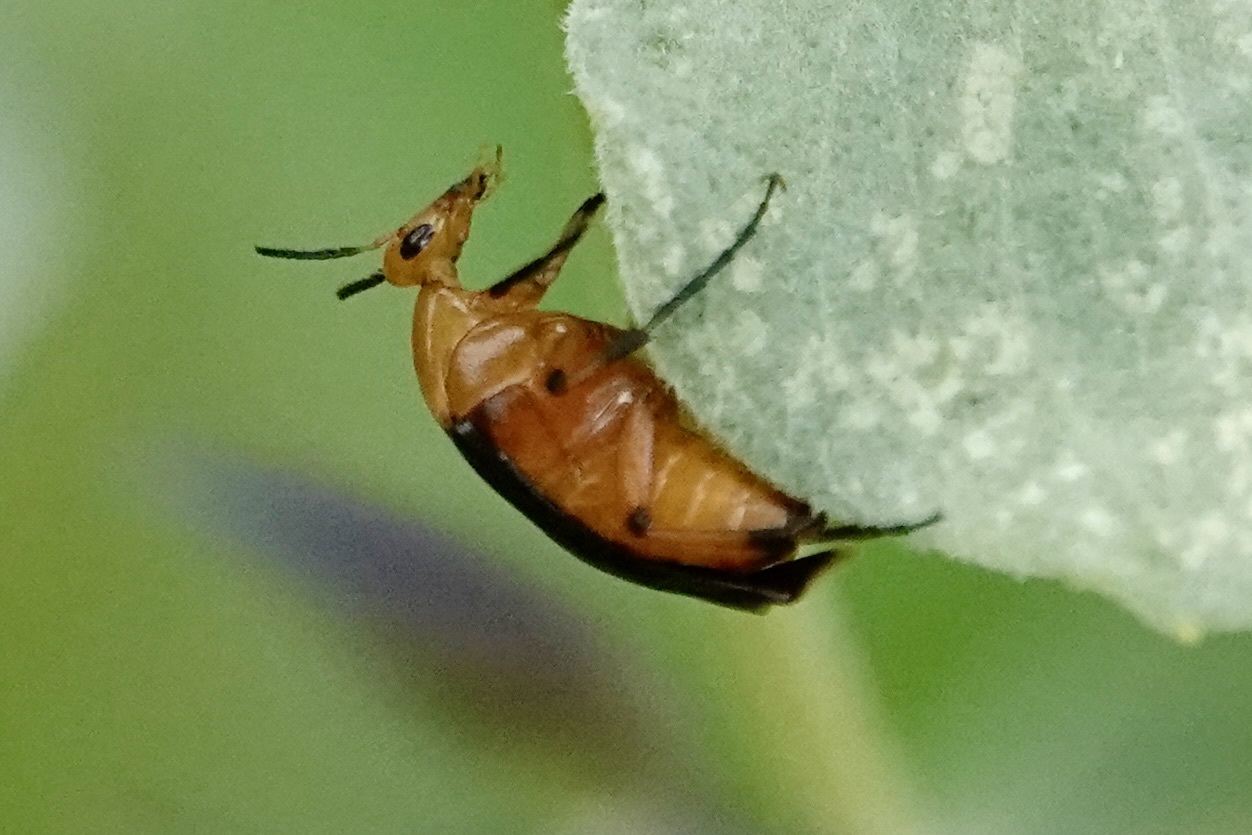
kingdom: Animalia
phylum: Arthropoda
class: Insecta
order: Coleoptera
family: Ripiphoridae
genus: Macrosiagon
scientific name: Macrosiagon limbatum
